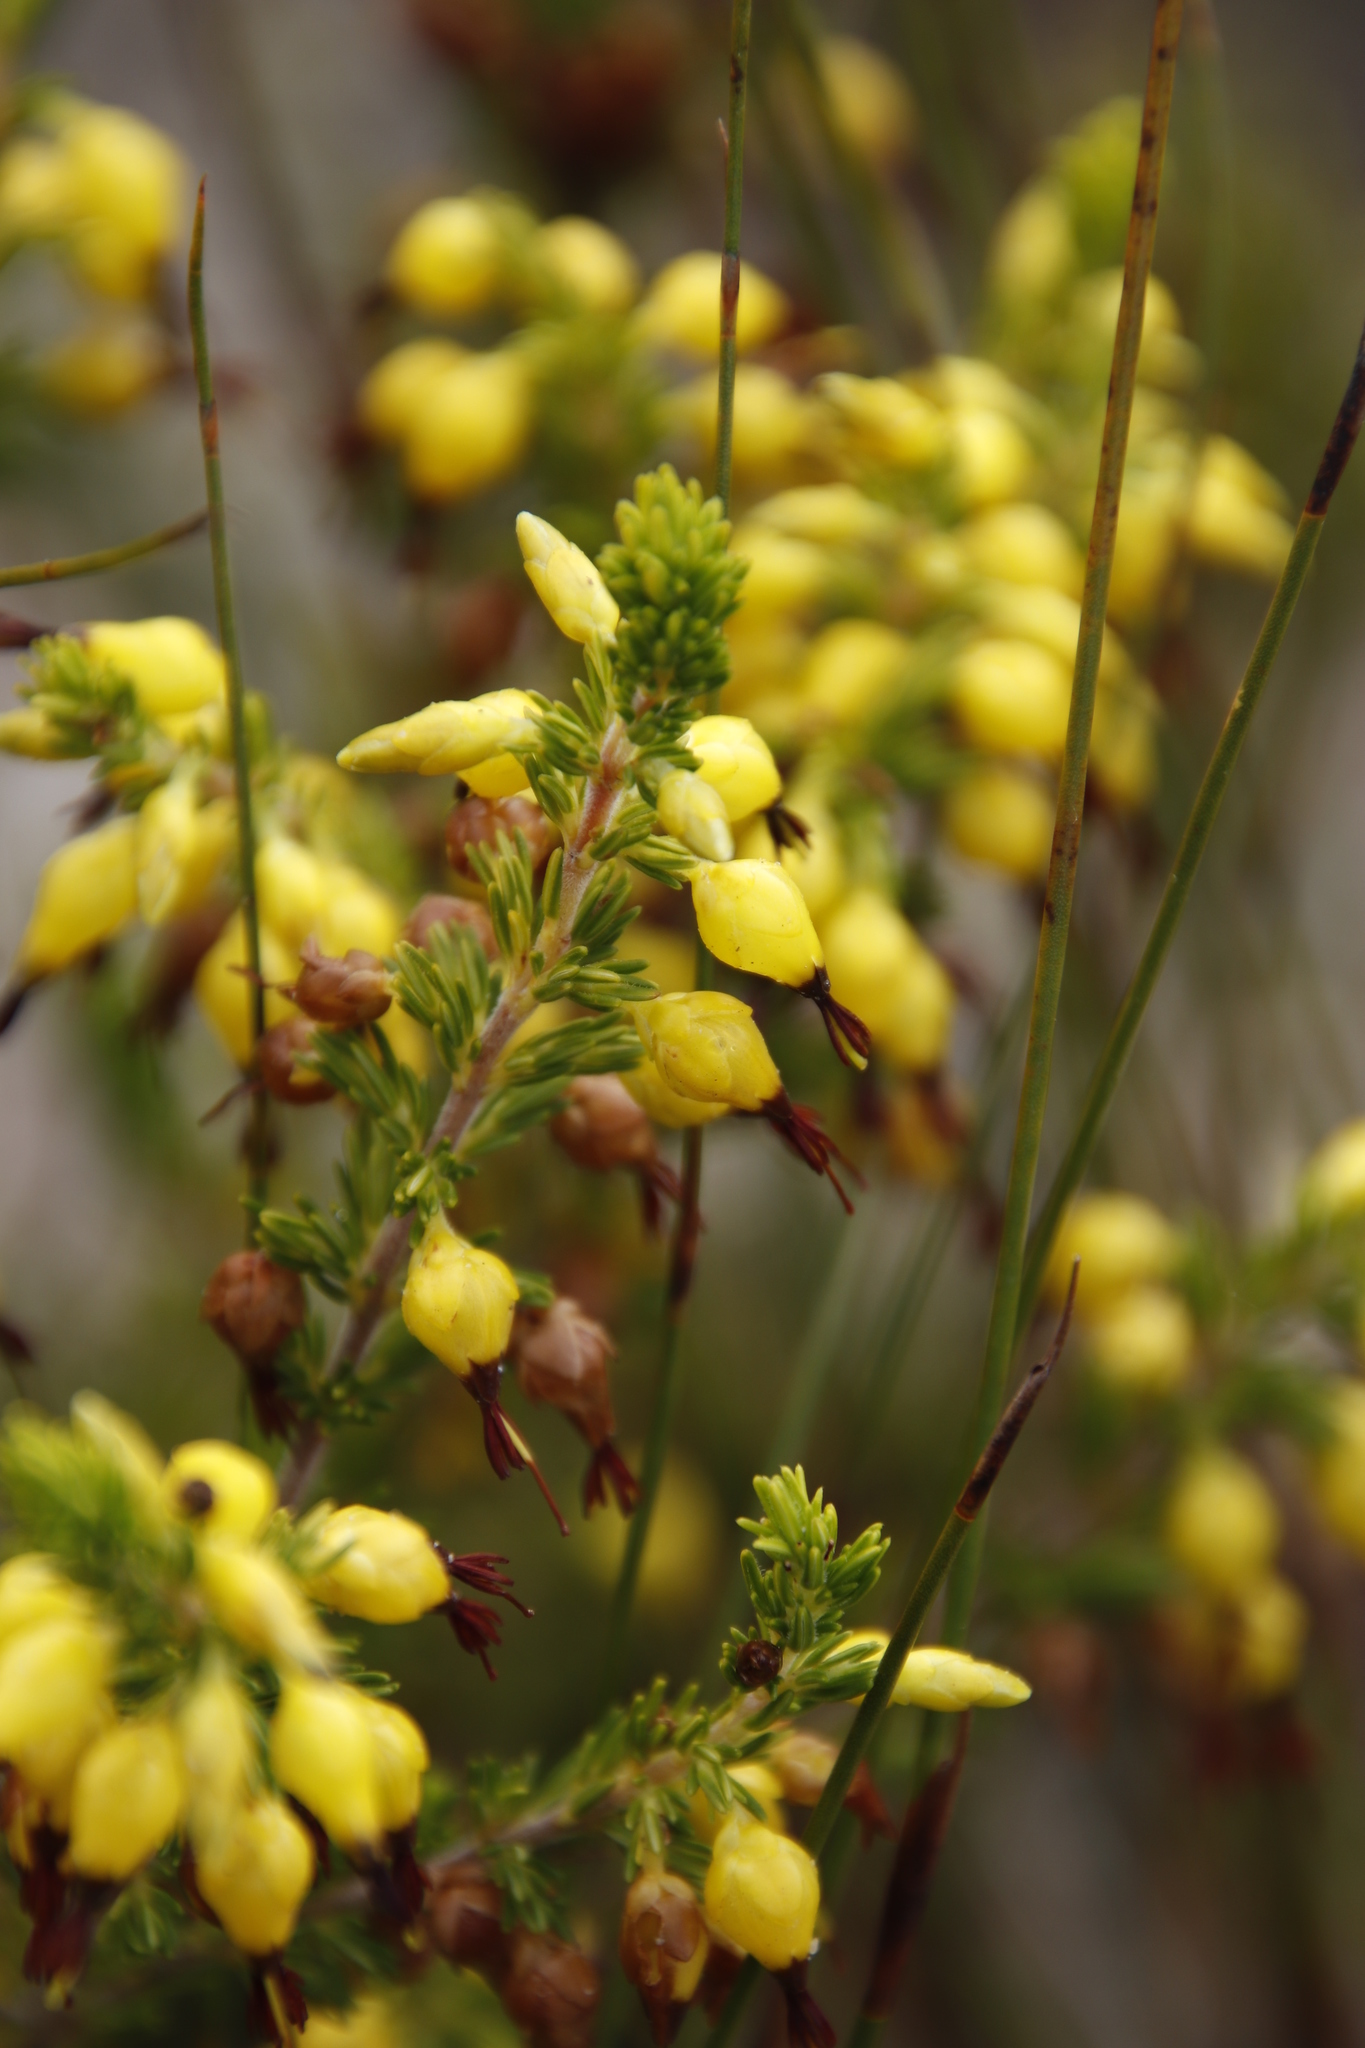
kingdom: Plantae
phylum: Tracheophyta
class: Magnoliopsida
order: Ericales
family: Ericaceae
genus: Erica
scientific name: Erica melastoma
